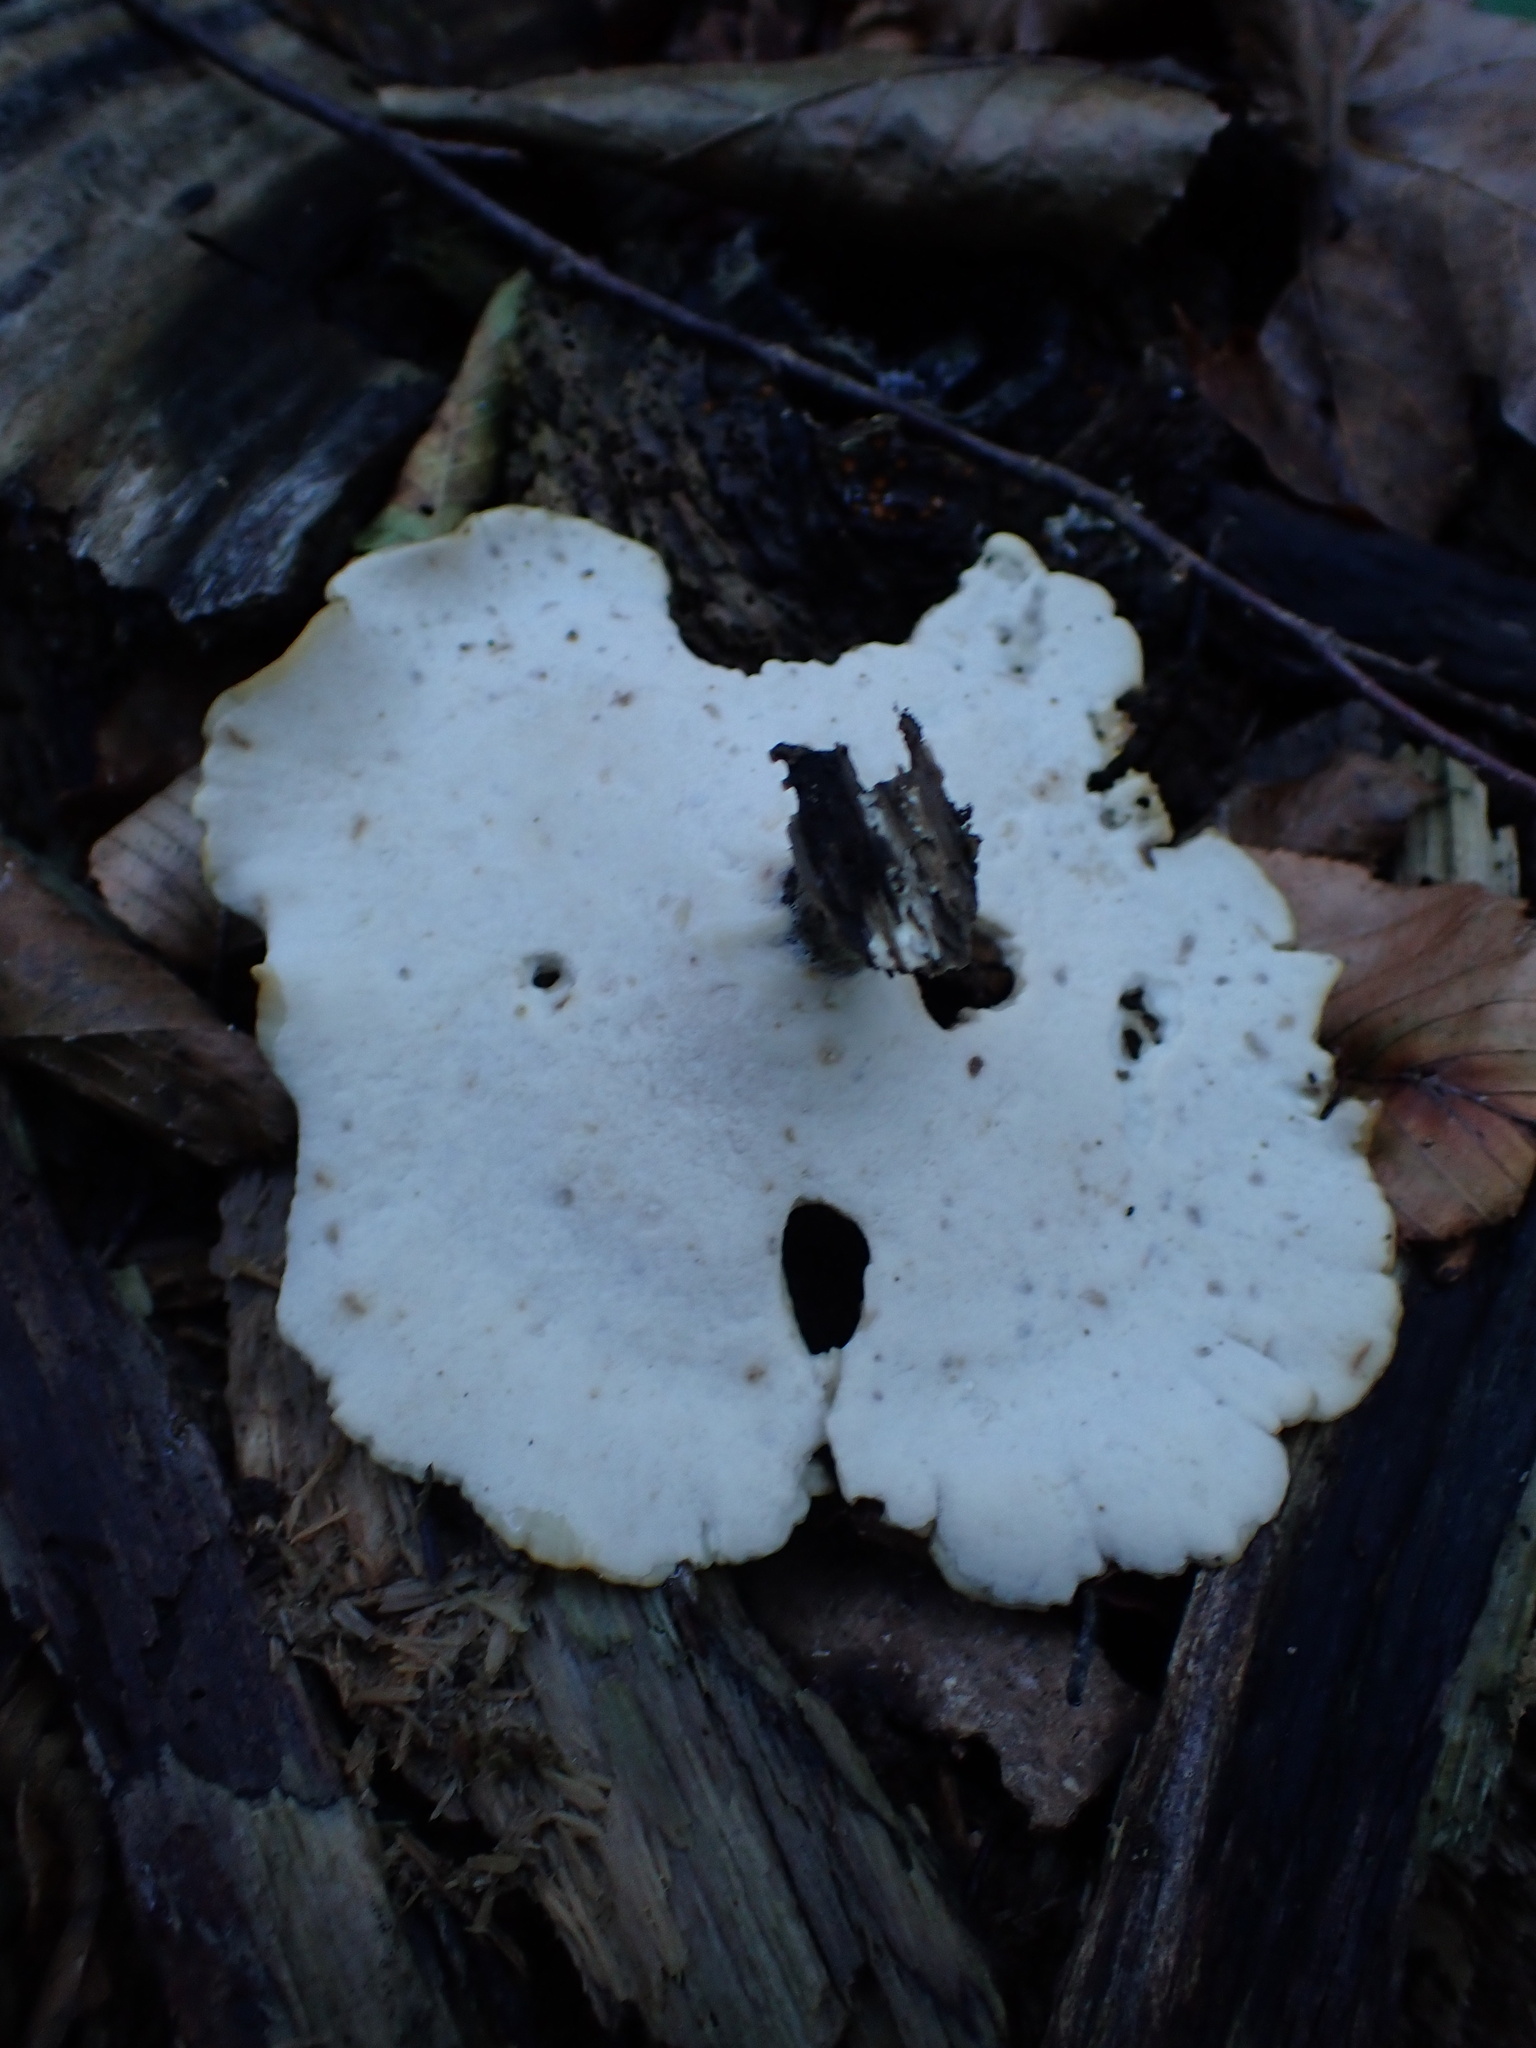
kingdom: Fungi
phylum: Basidiomycota
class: Agaricomycetes
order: Polyporales
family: Polyporaceae
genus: Picipes
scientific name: Picipes badius
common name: Bay polypore
